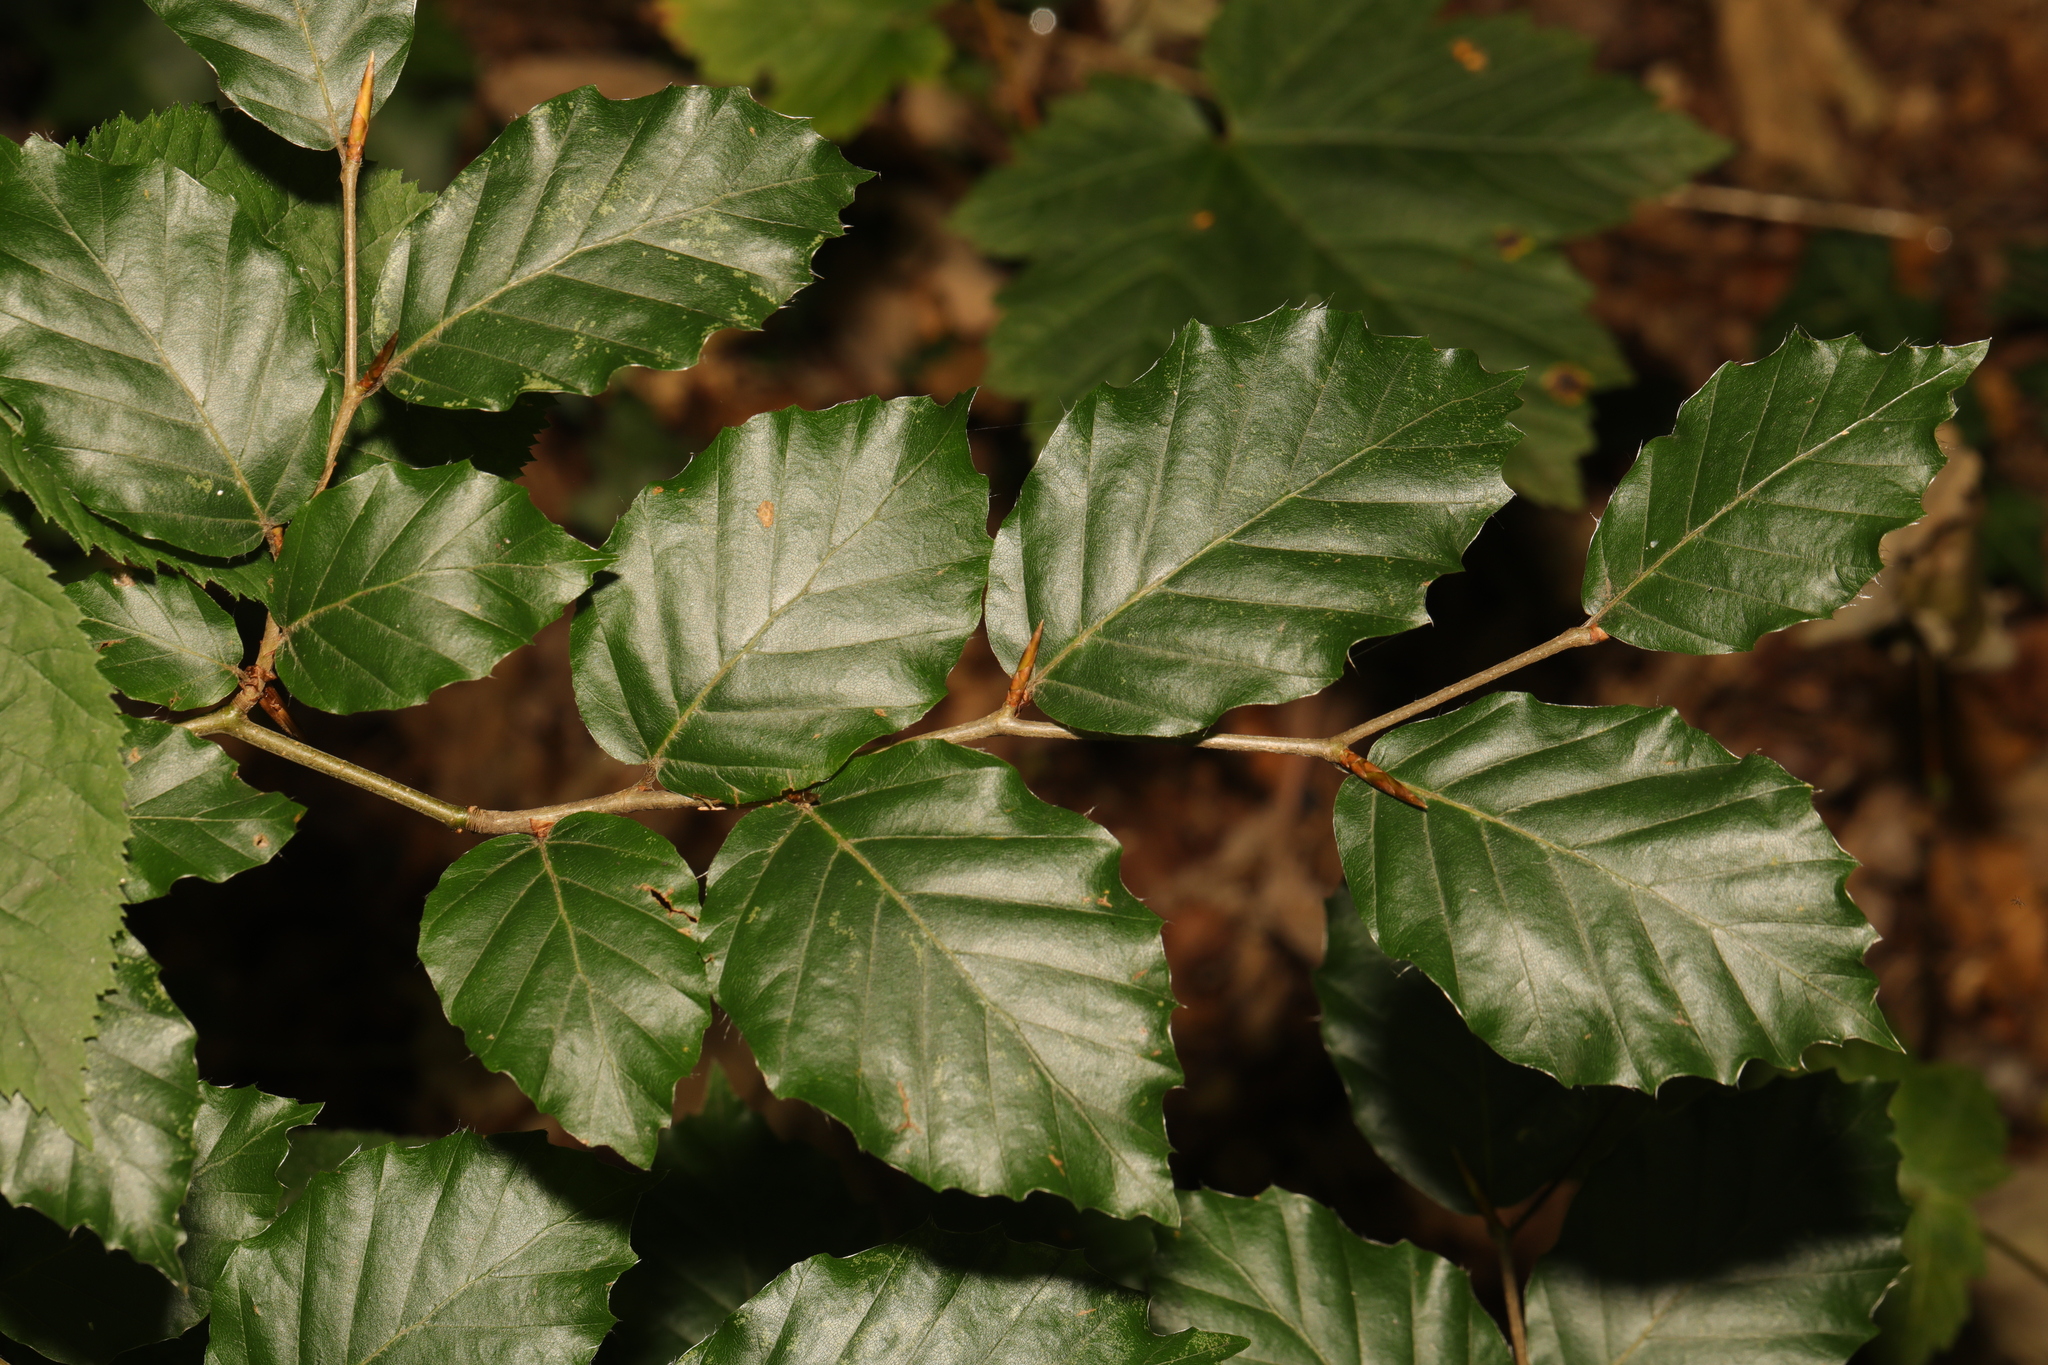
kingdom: Plantae
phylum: Tracheophyta
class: Magnoliopsida
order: Fagales
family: Fagaceae
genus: Fagus
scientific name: Fagus sylvatica
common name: Beech
